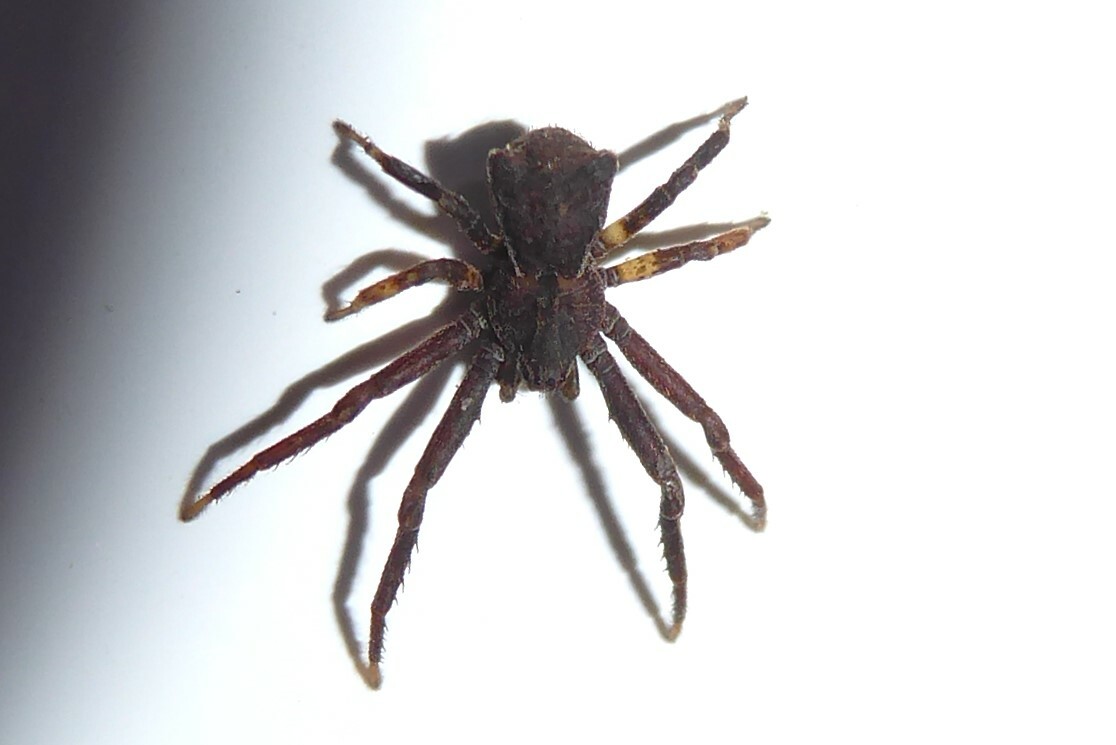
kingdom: Animalia
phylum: Arthropoda
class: Arachnida
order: Araneae
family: Thomisidae
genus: Sidymella
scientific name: Sidymella angularis
